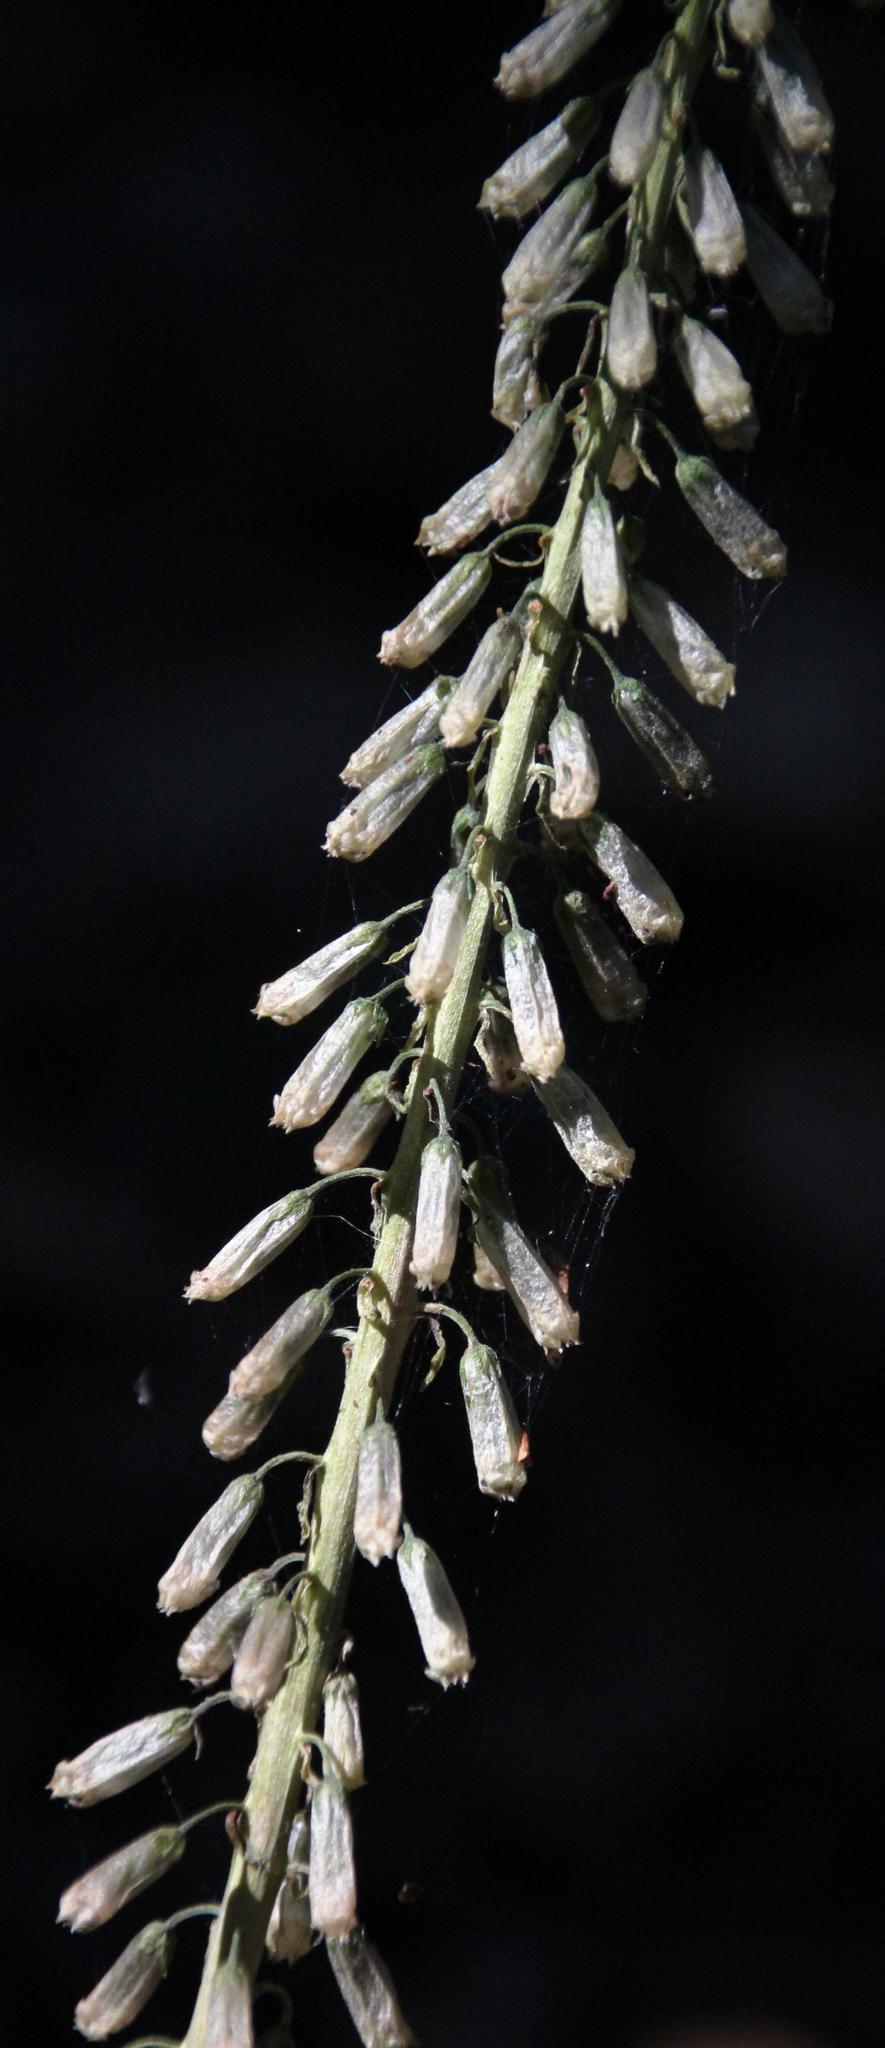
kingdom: Plantae
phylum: Tracheophyta
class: Magnoliopsida
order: Saxifragales
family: Crassulaceae
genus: Umbilicus
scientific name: Umbilicus heylandianus
